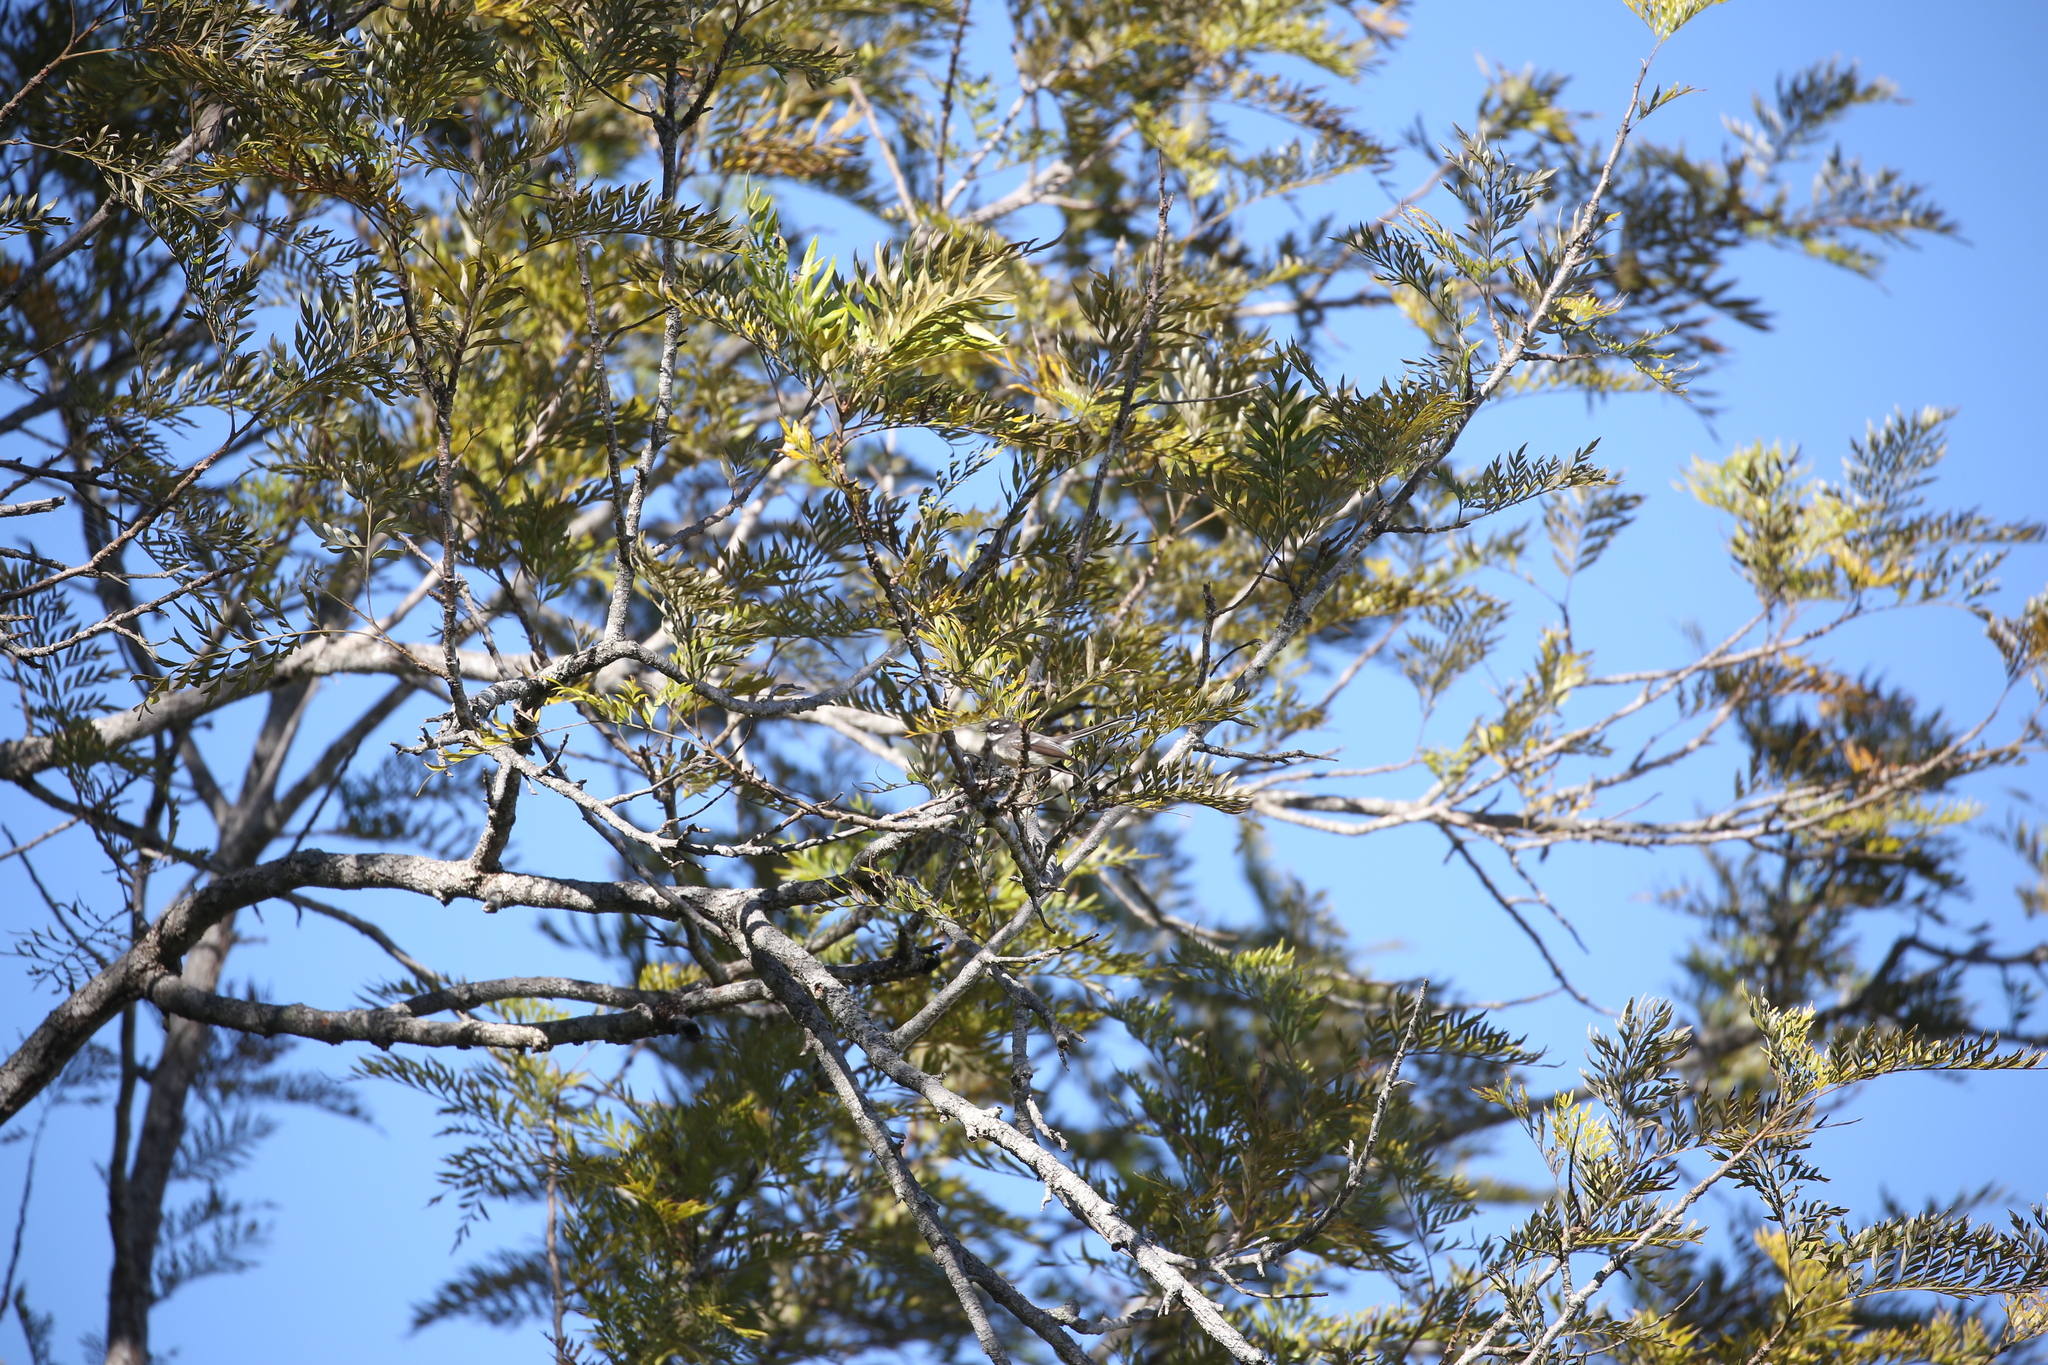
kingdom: Animalia
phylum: Chordata
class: Aves
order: Passeriformes
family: Rhipiduridae
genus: Rhipidura
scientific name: Rhipidura albiscapa
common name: Grey fantail
